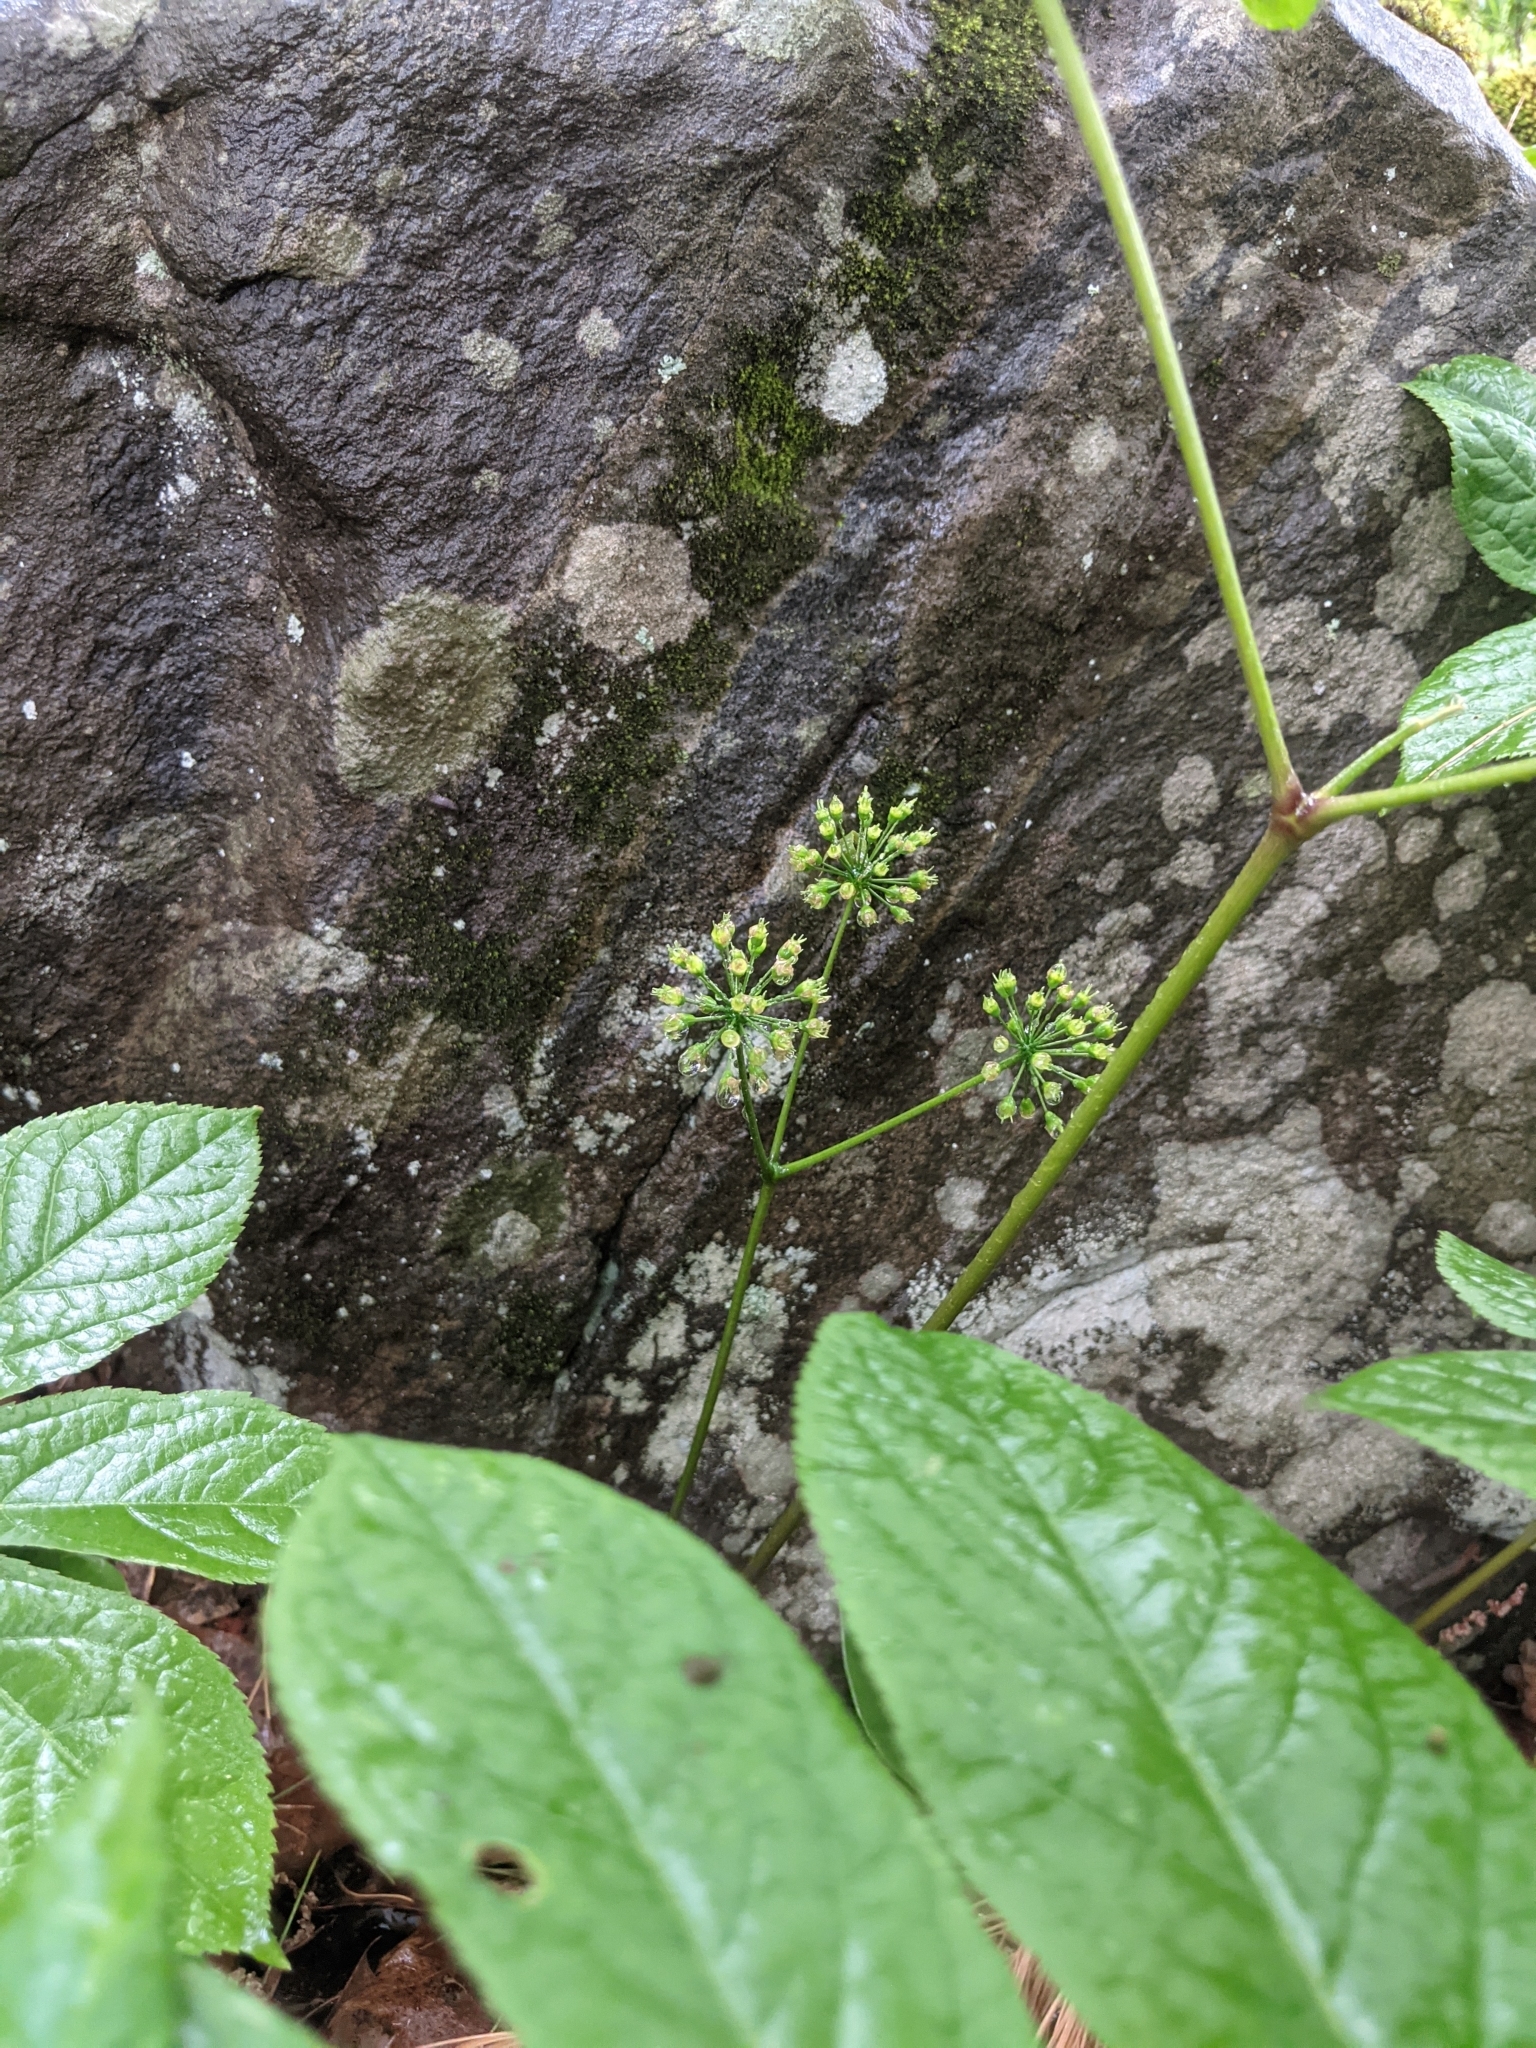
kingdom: Plantae
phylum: Tracheophyta
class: Magnoliopsida
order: Apiales
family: Araliaceae
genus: Aralia
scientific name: Aralia nudicaulis
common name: Wild sarsaparilla
